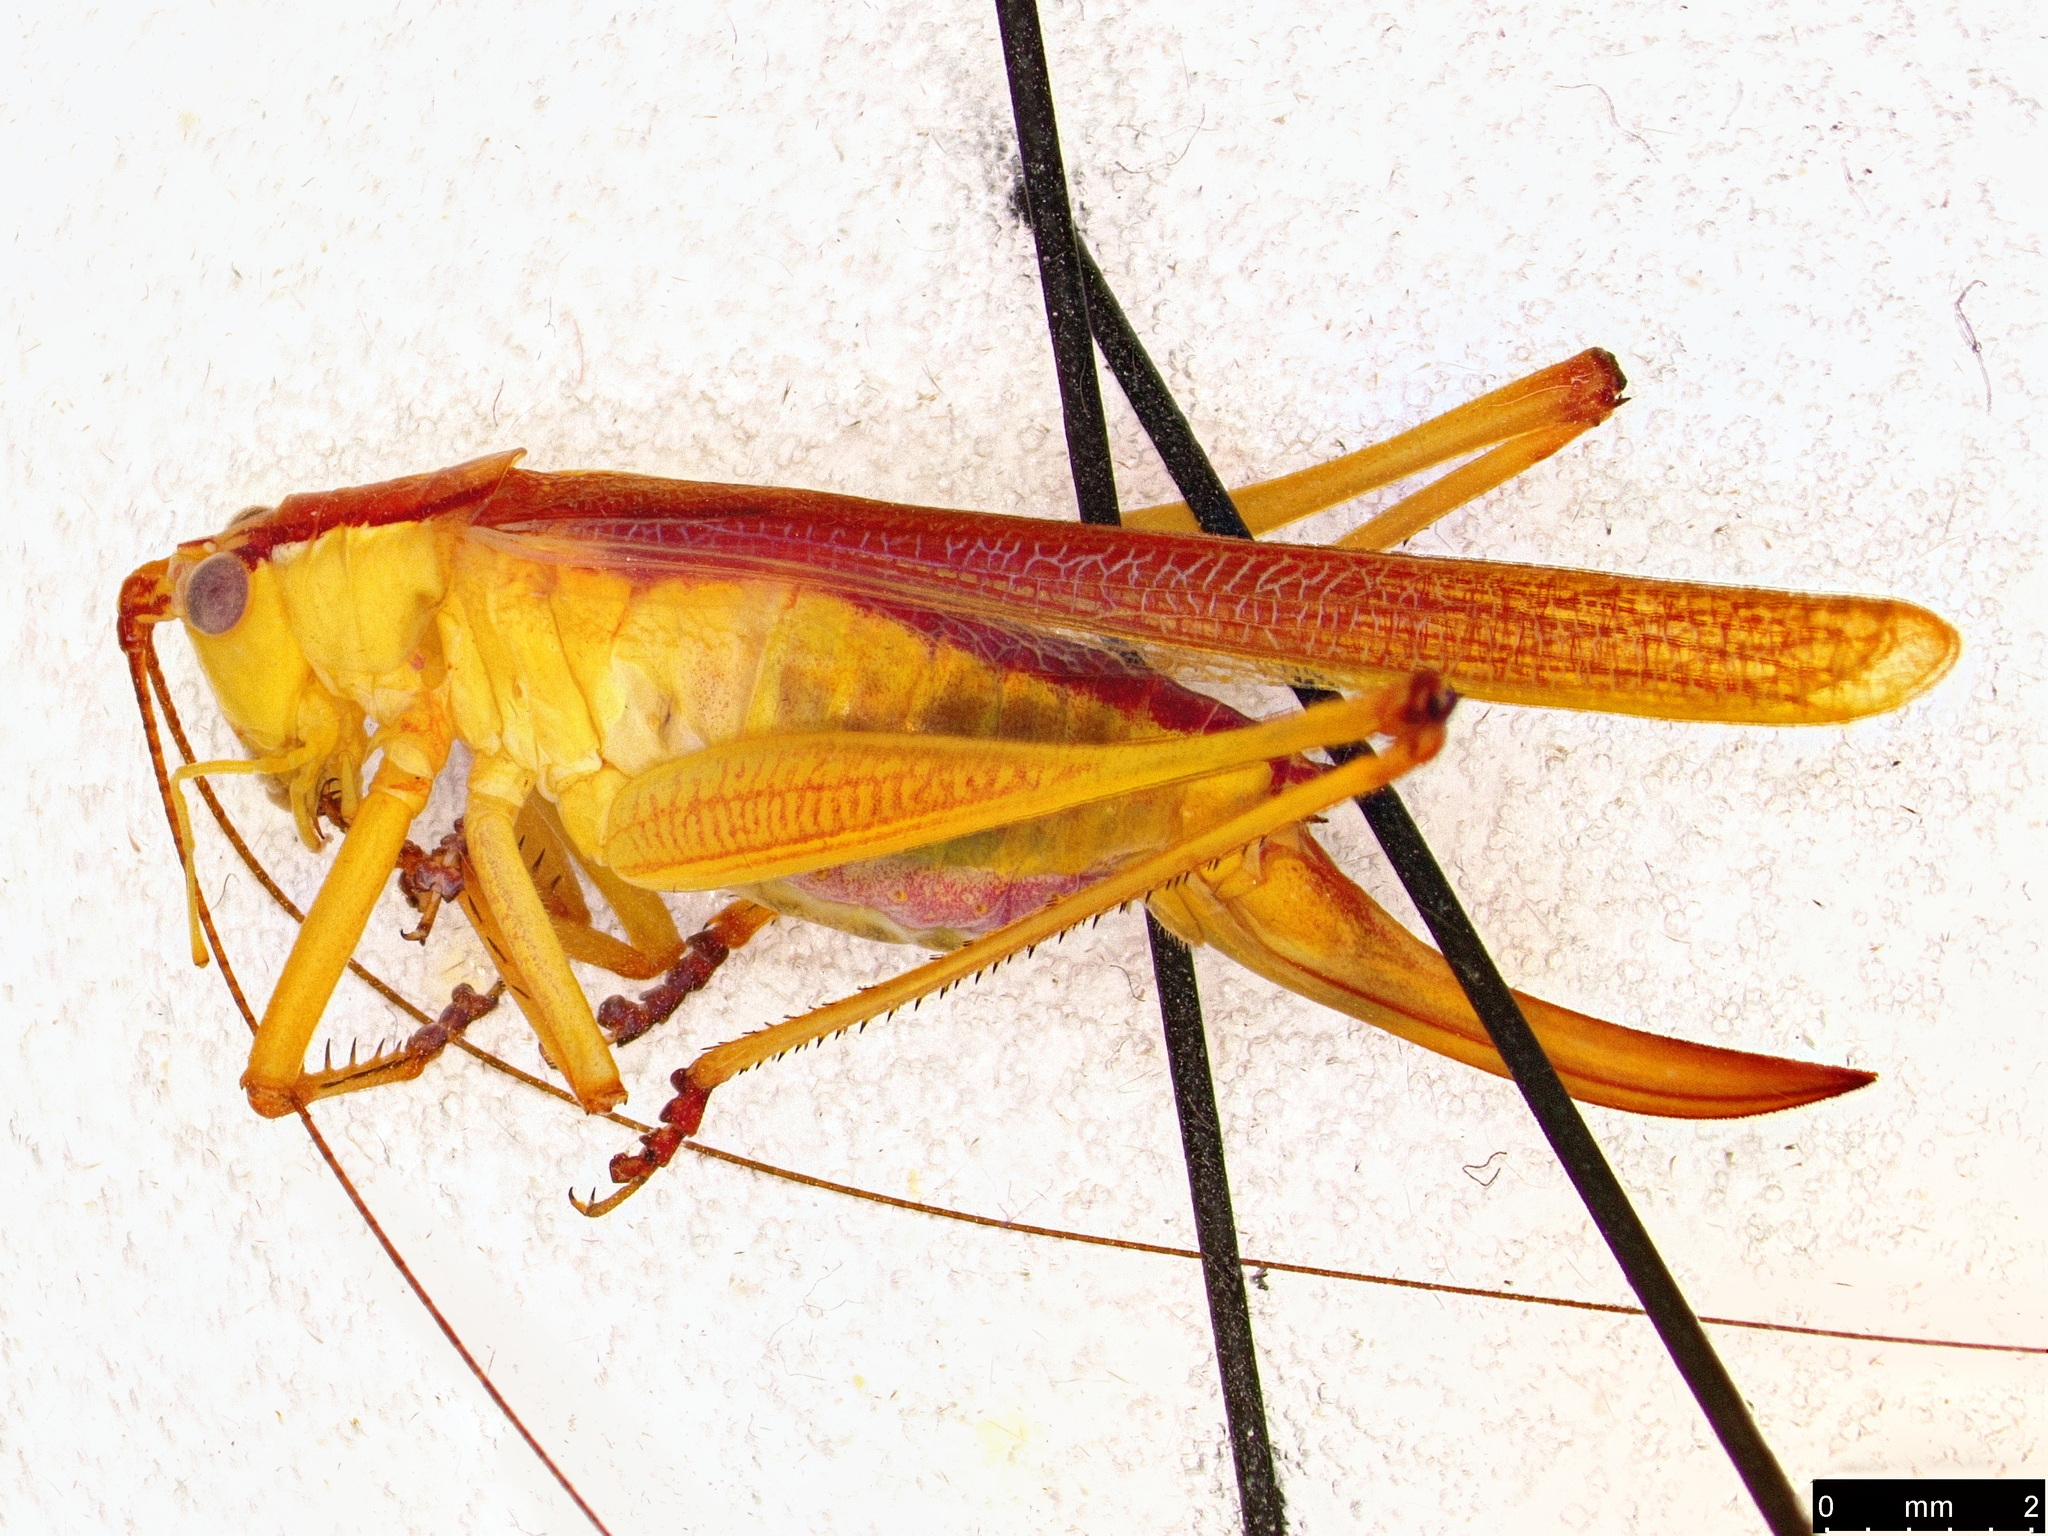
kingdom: Animalia
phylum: Arthropoda
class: Insecta
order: Orthoptera
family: Tettigoniidae
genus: Conocephalomima
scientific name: Conocephalomima barameda
